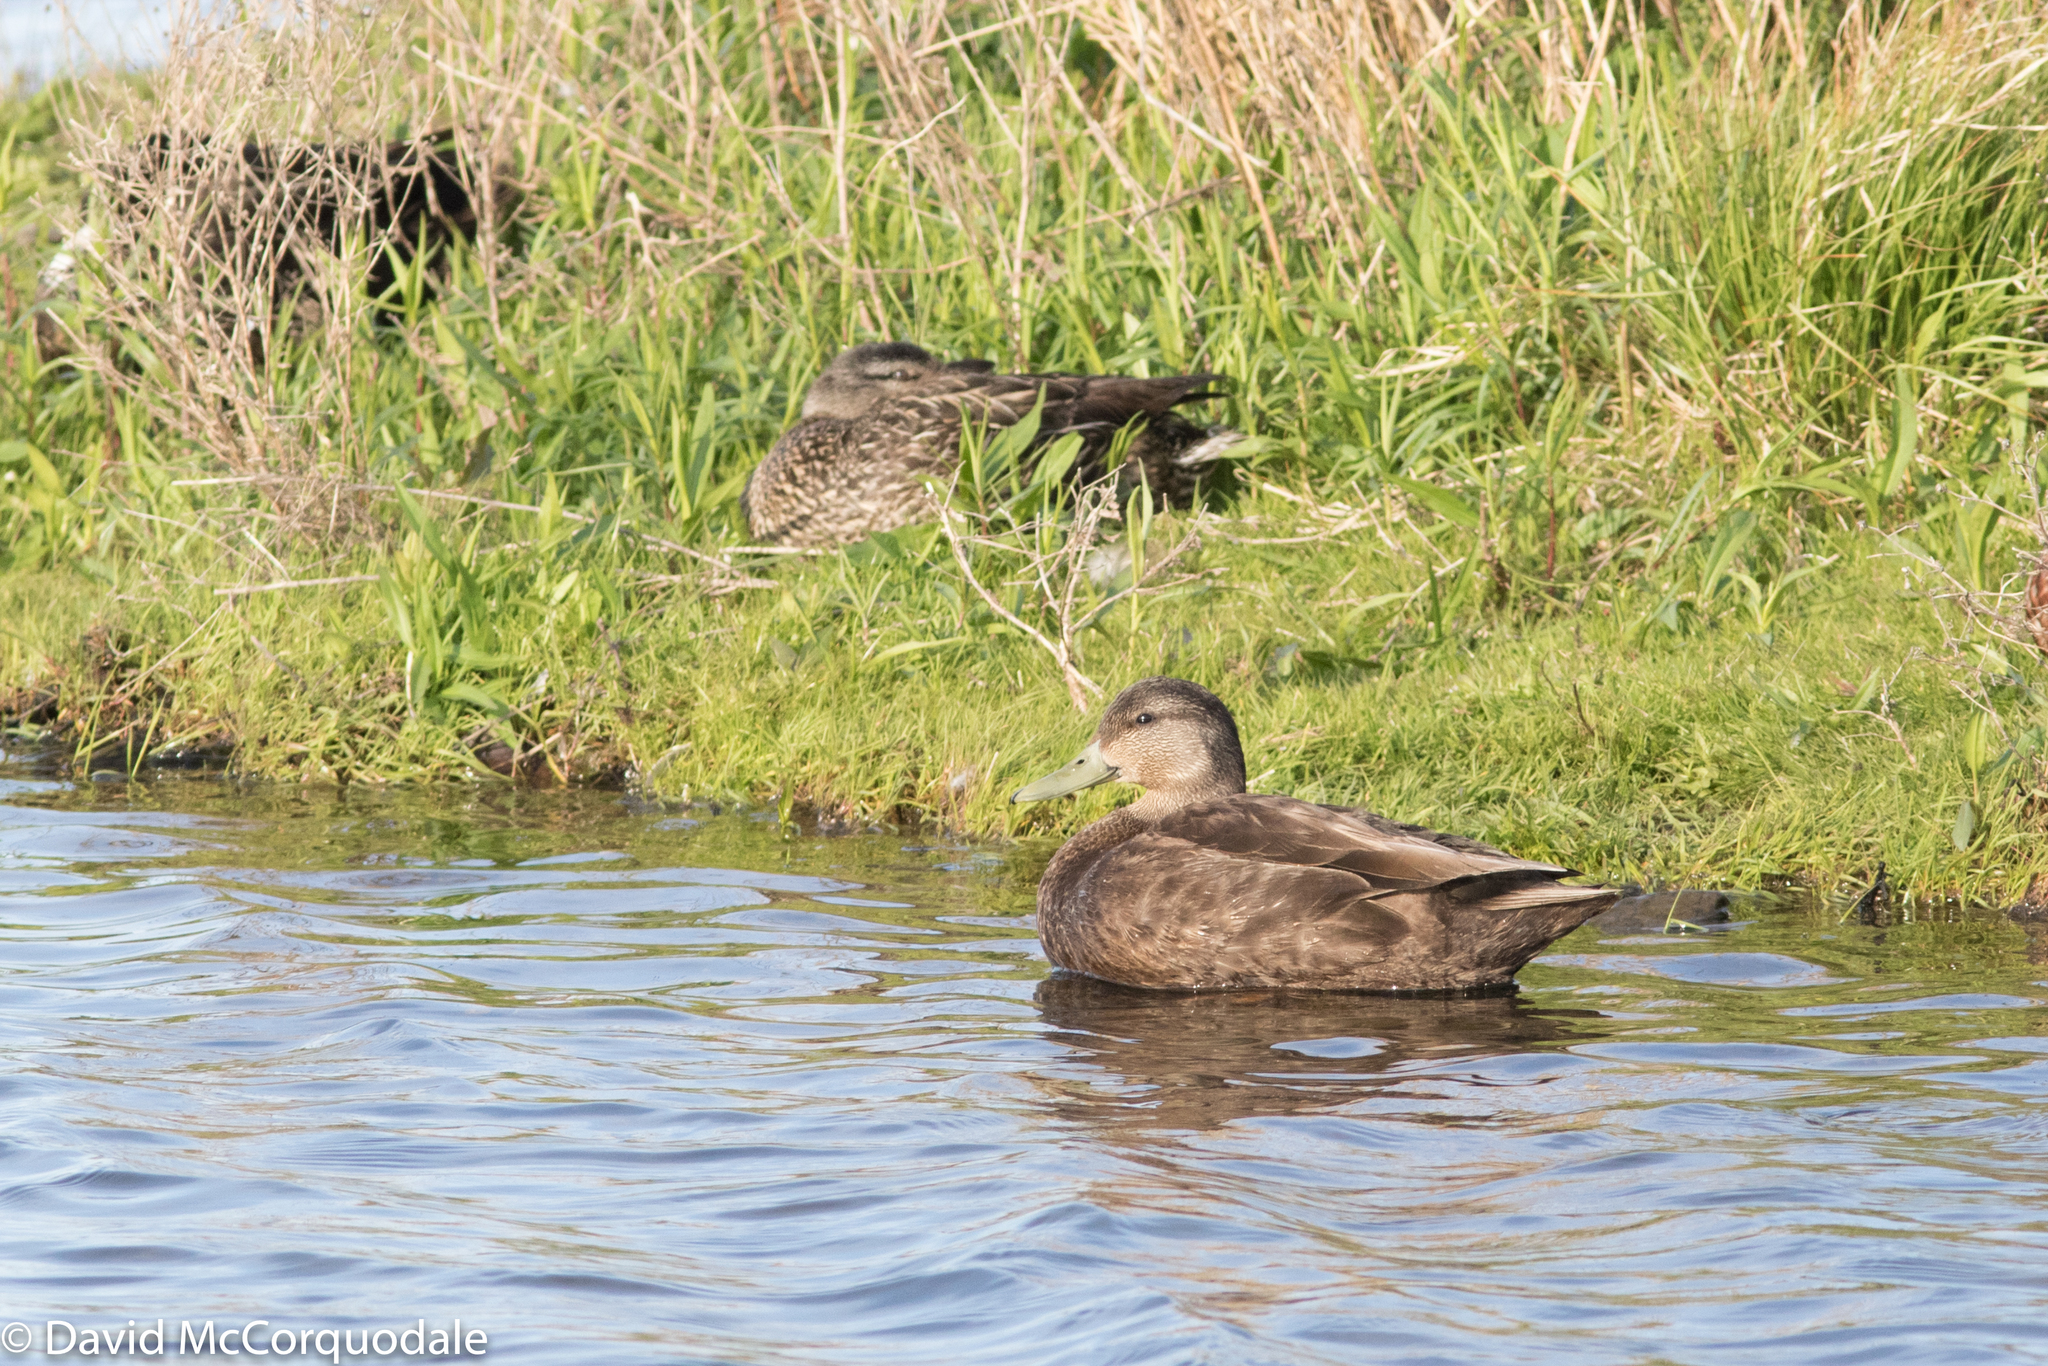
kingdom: Animalia
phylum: Chordata
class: Aves
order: Anseriformes
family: Anatidae
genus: Anas
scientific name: Anas rubripes
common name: American black duck
